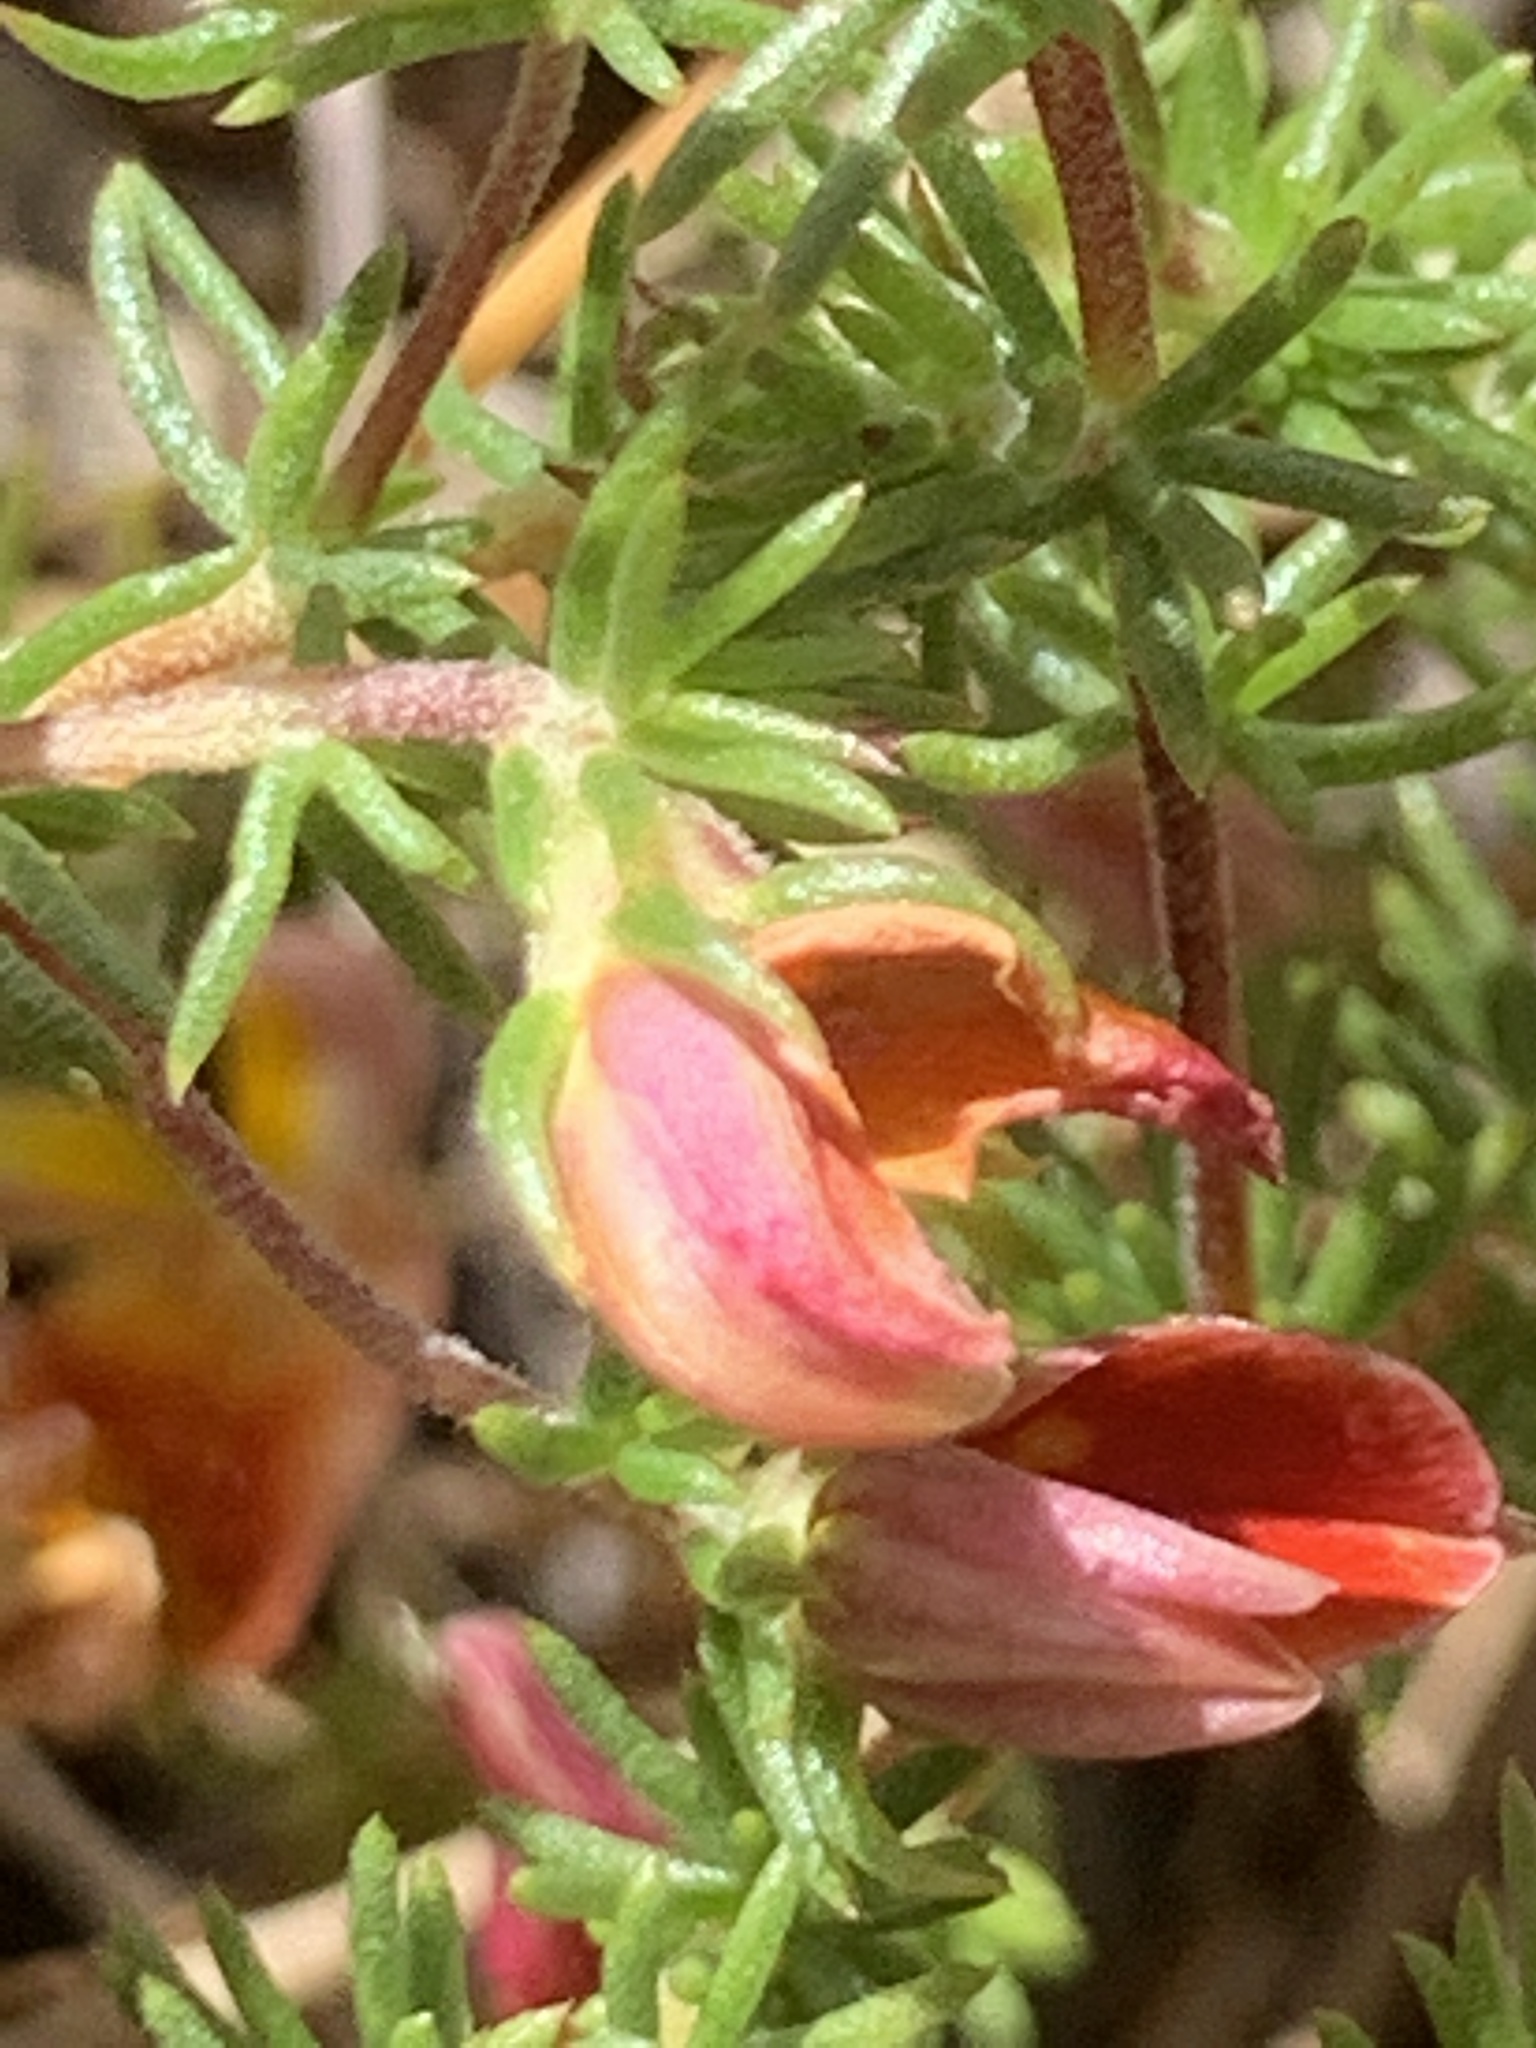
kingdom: Plantae
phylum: Tracheophyta
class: Magnoliopsida
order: Fabales
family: Fabaceae
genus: Aspalathus
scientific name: Aspalathus retroflexa
